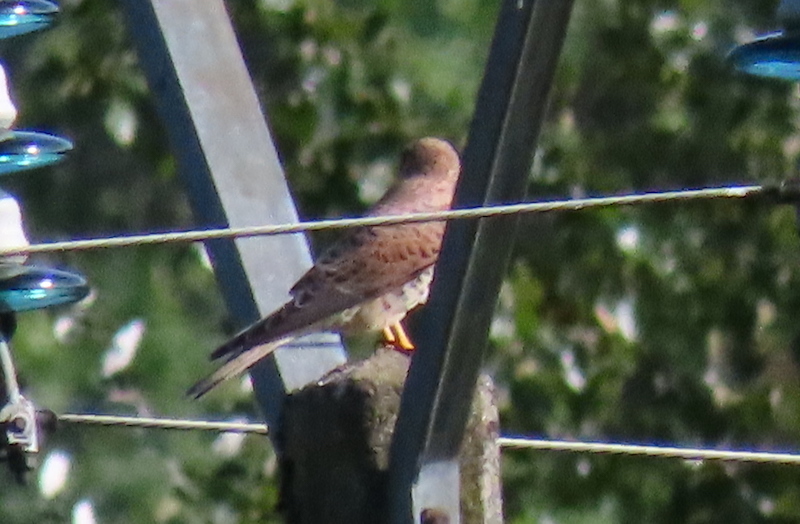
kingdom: Animalia
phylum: Chordata
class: Aves
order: Falconiformes
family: Falconidae
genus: Falco
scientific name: Falco tinnunculus
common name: Common kestrel
